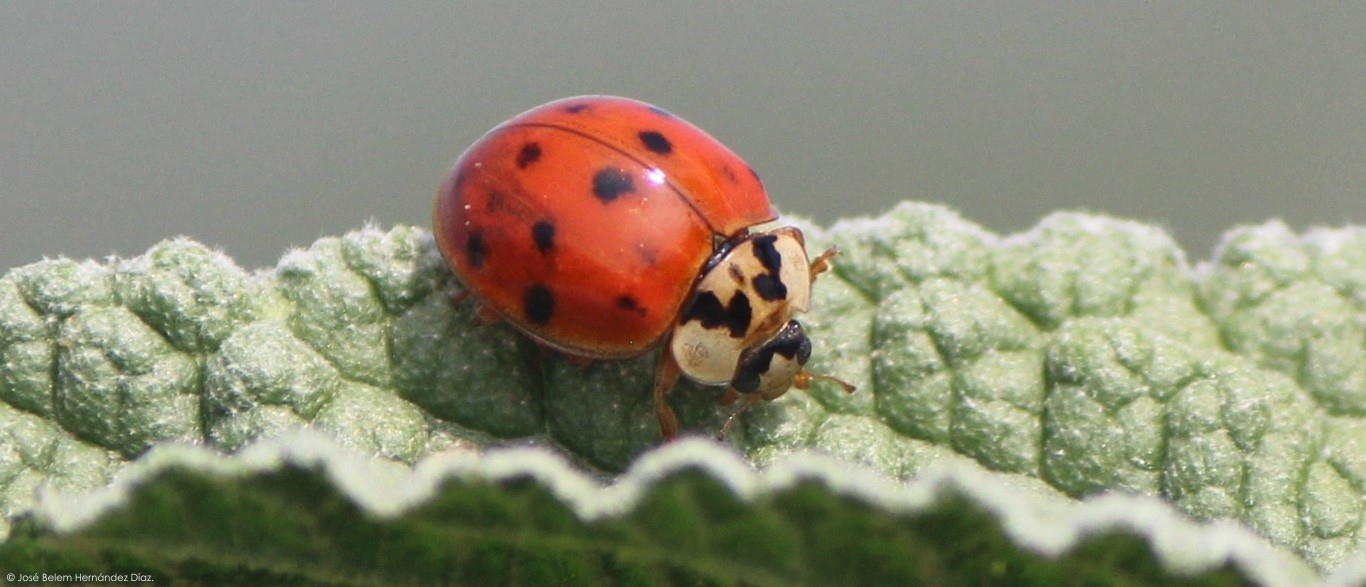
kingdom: Animalia
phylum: Arthropoda
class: Insecta
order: Coleoptera
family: Coccinellidae
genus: Harmonia
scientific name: Harmonia axyridis
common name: Harlequin ladybird
